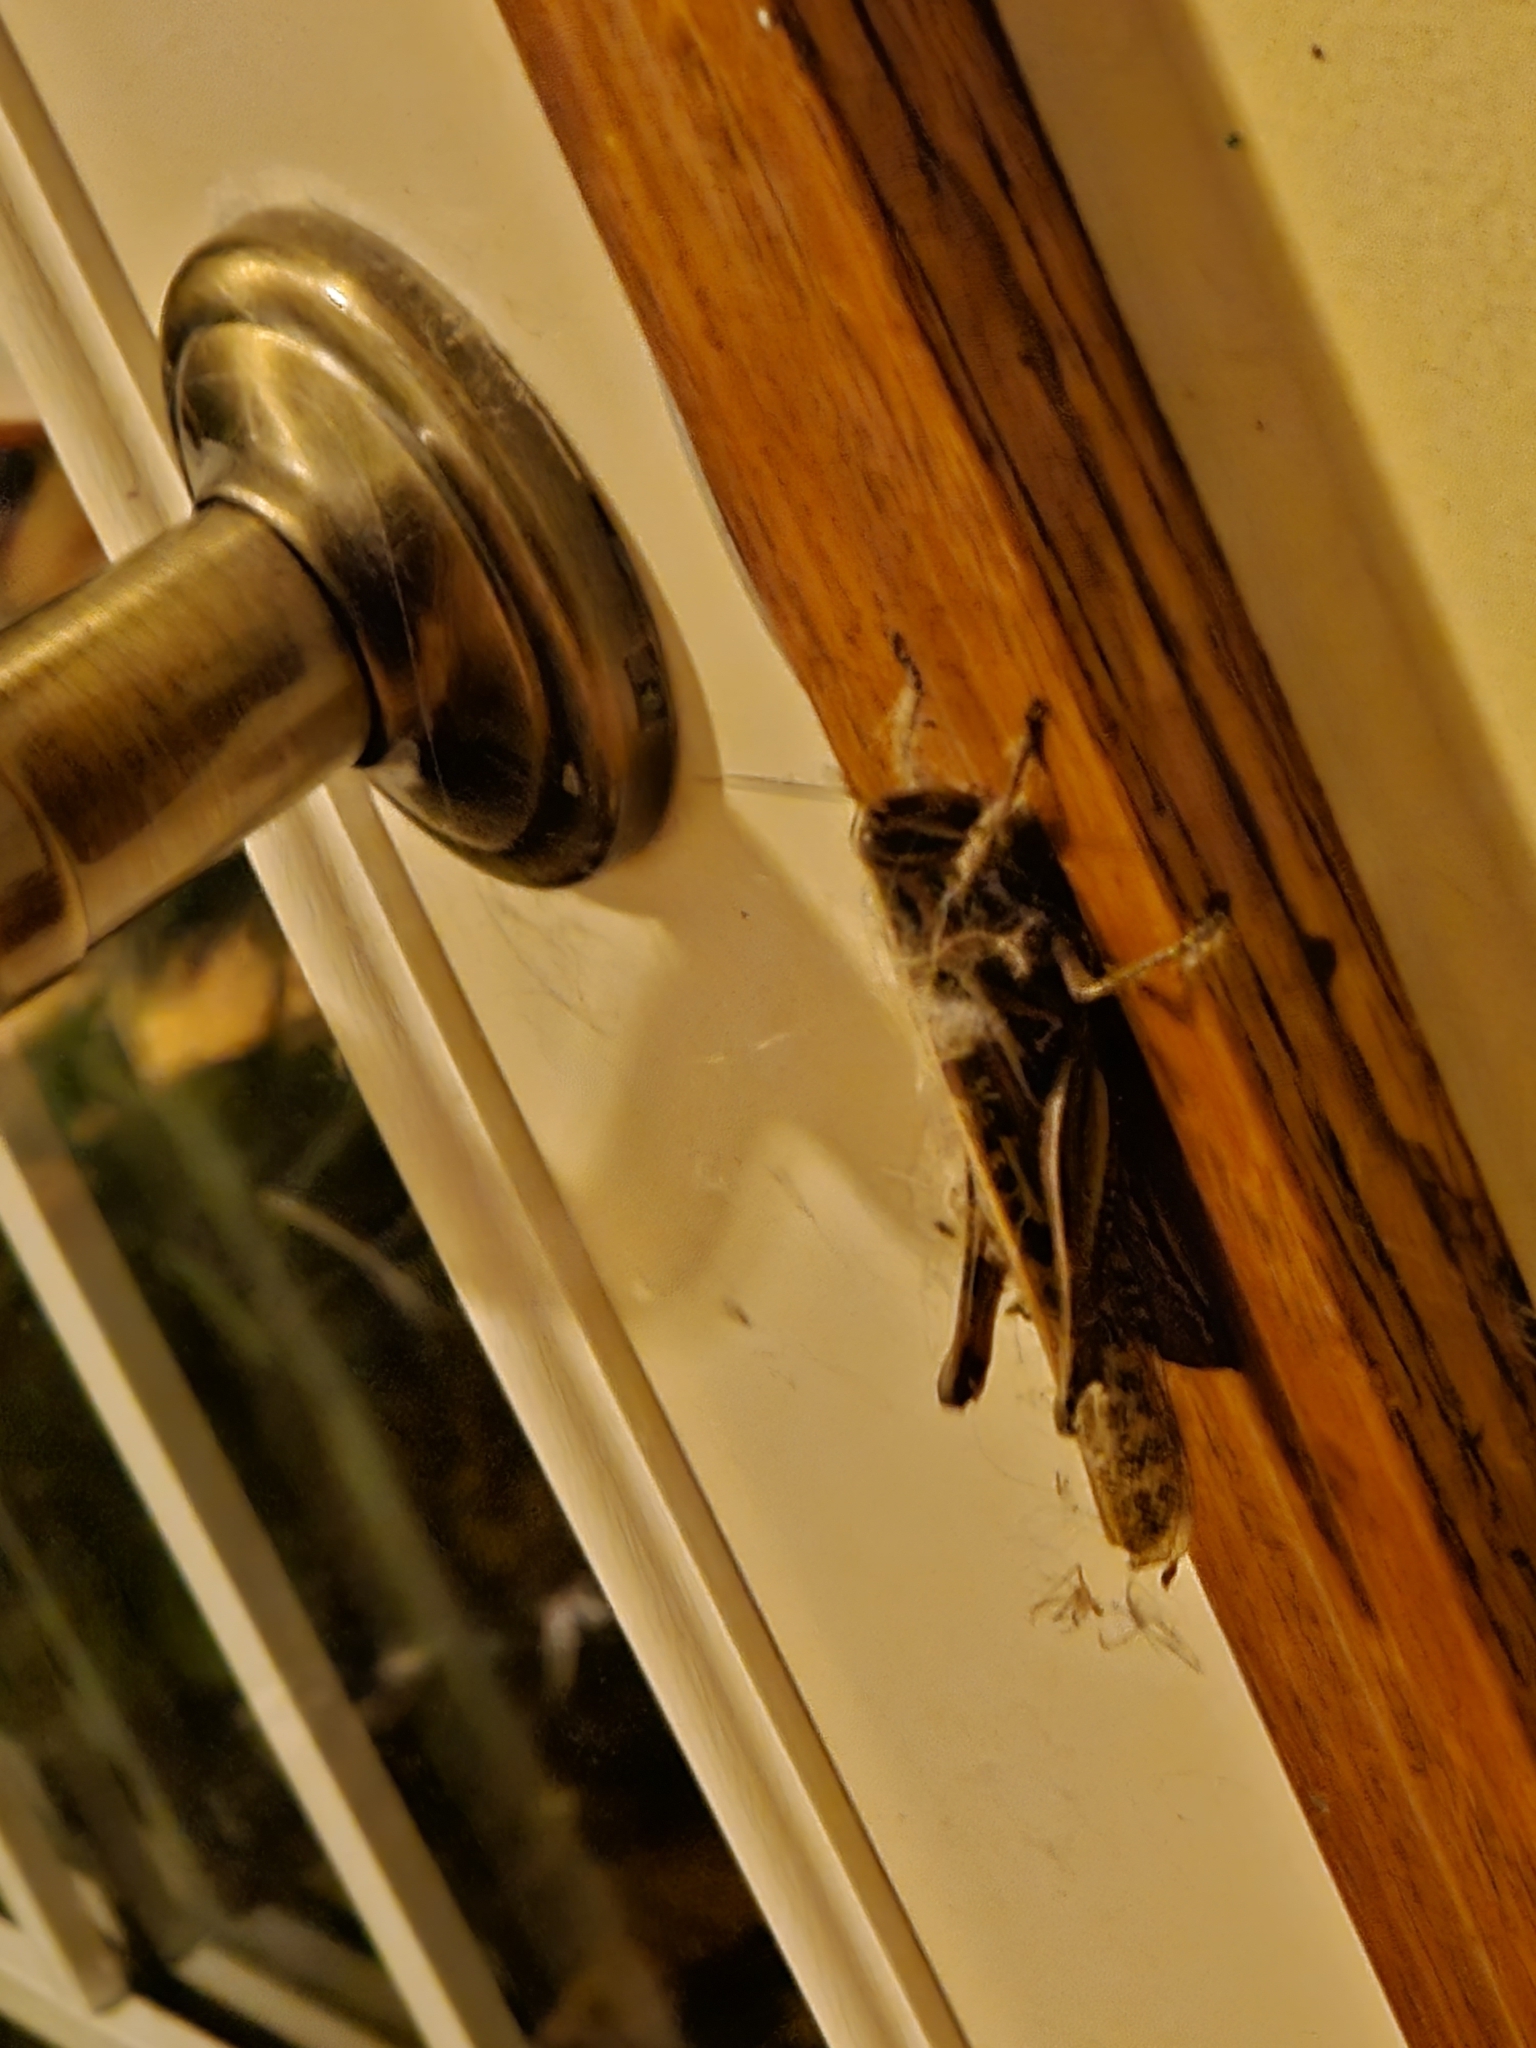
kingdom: Animalia
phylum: Arthropoda
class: Insecta
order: Orthoptera
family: Acrididae
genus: Schistocerca
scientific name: Schistocerca americana
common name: American bird locust
